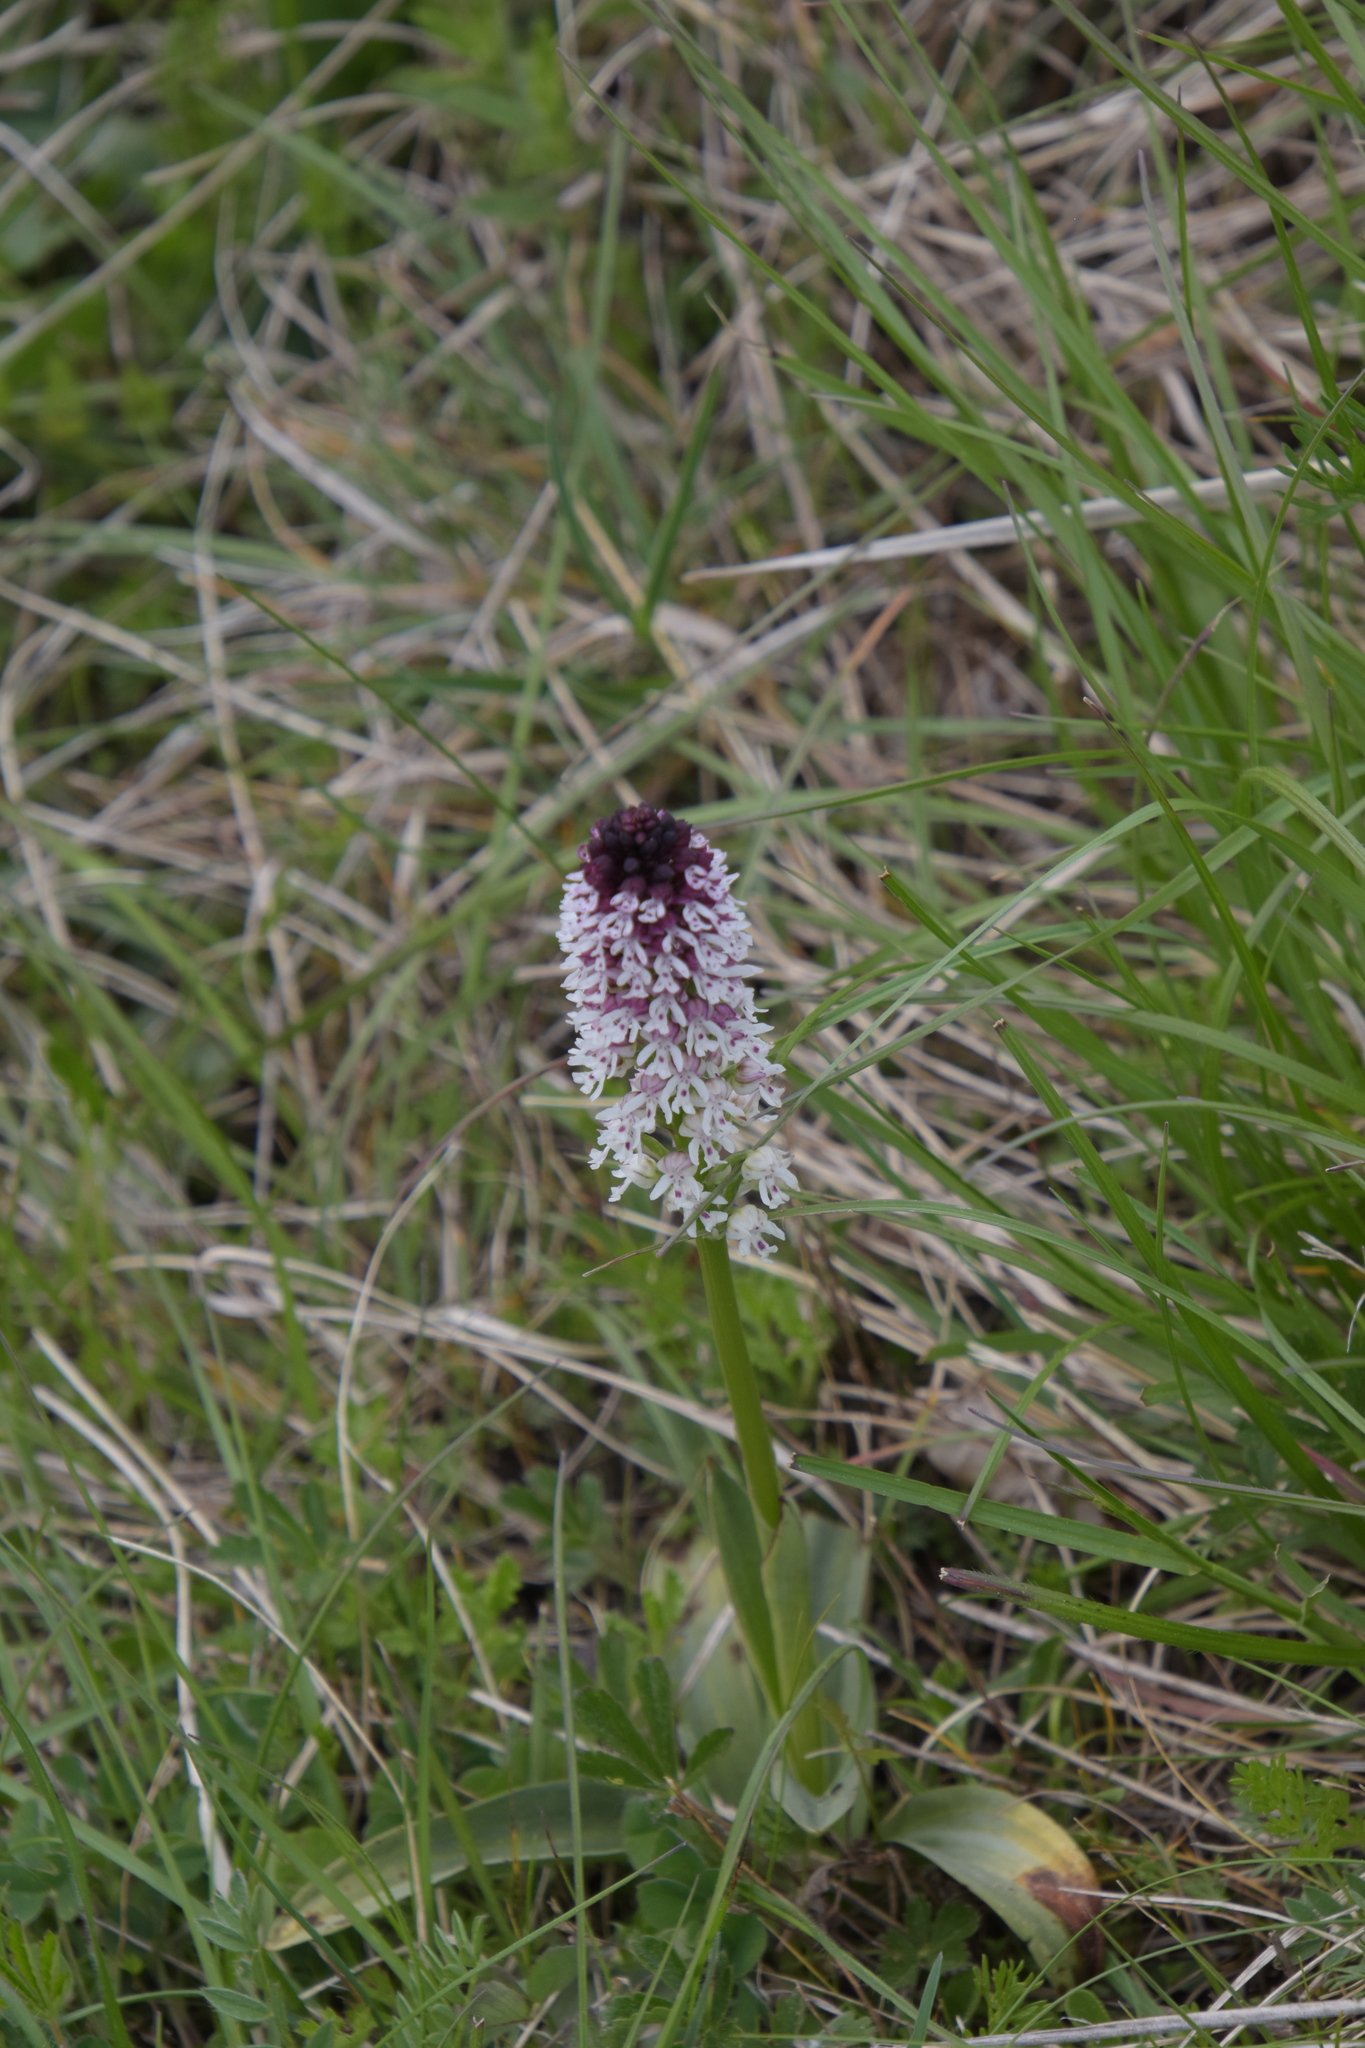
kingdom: Plantae
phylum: Tracheophyta
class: Liliopsida
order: Asparagales
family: Orchidaceae
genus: Neotinea
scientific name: Neotinea ustulata
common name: Burnt orchid
